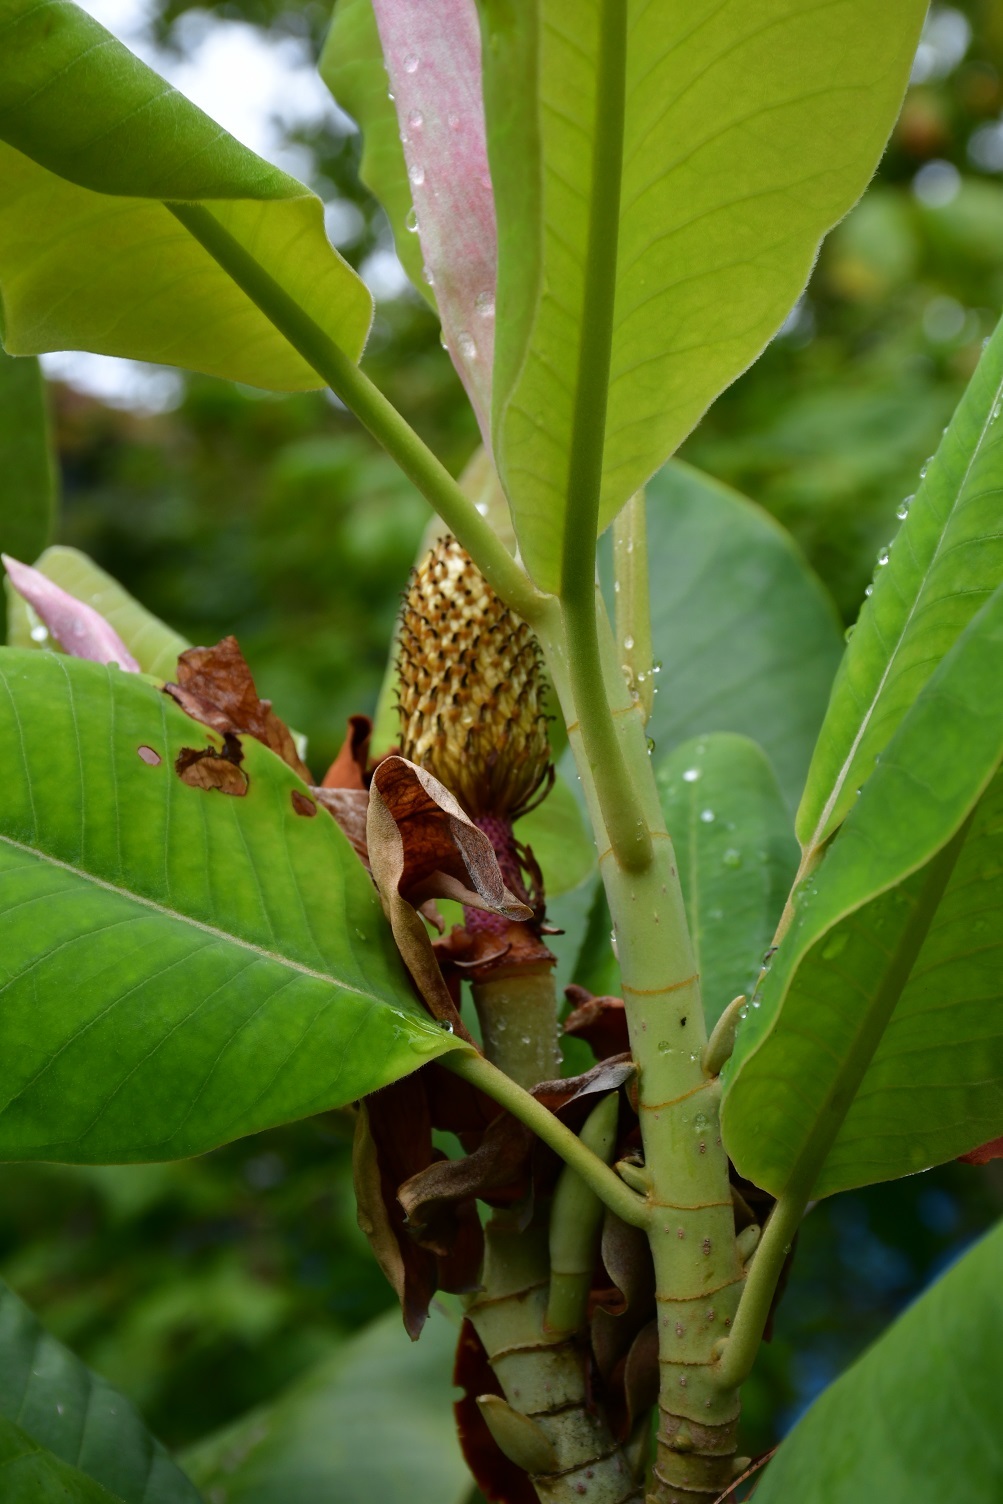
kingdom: Plantae
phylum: Tracheophyta
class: Magnoliopsida
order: Magnoliales
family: Magnoliaceae
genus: Magnolia
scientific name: Magnolia sharpii
